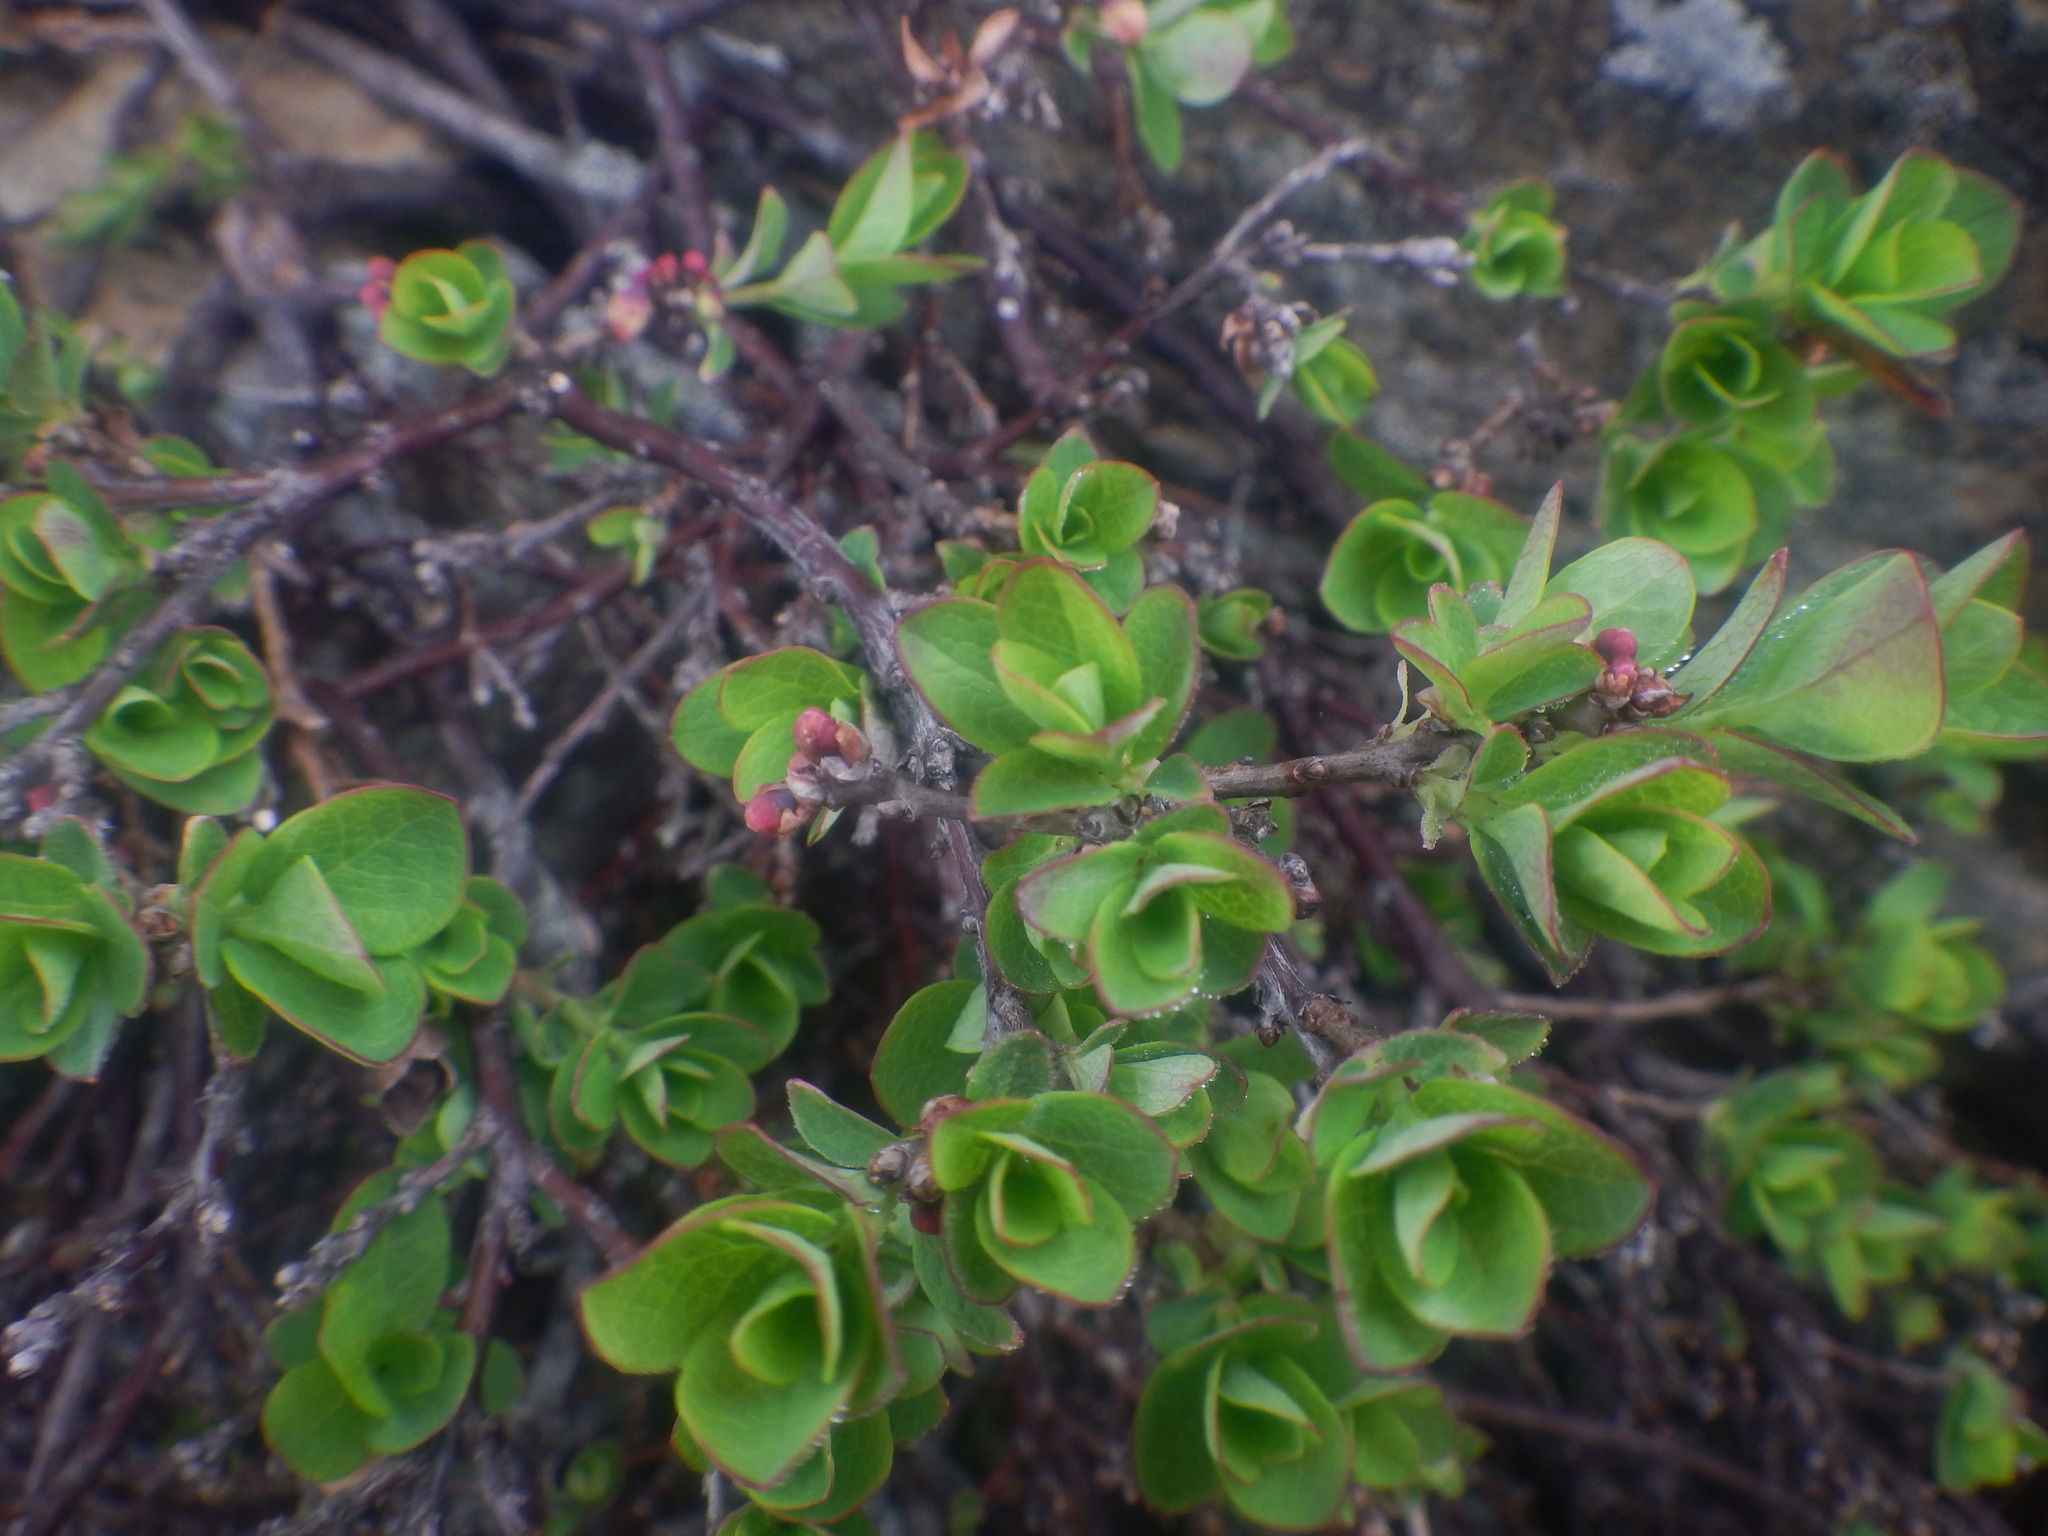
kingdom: Plantae
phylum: Tracheophyta
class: Magnoliopsida
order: Ericales
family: Ericaceae
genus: Vaccinium
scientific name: Vaccinium uliginosum
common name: Bog bilberry
